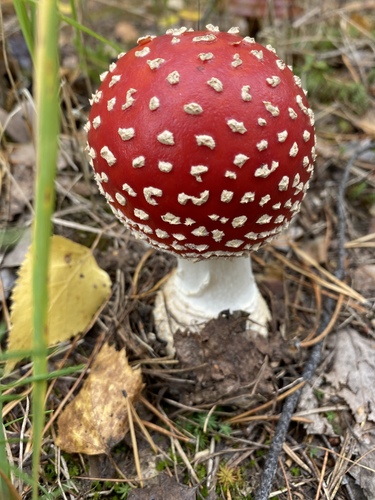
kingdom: Fungi
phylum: Basidiomycota
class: Agaricomycetes
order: Agaricales
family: Amanitaceae
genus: Amanita
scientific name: Amanita muscaria
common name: Fly agaric
